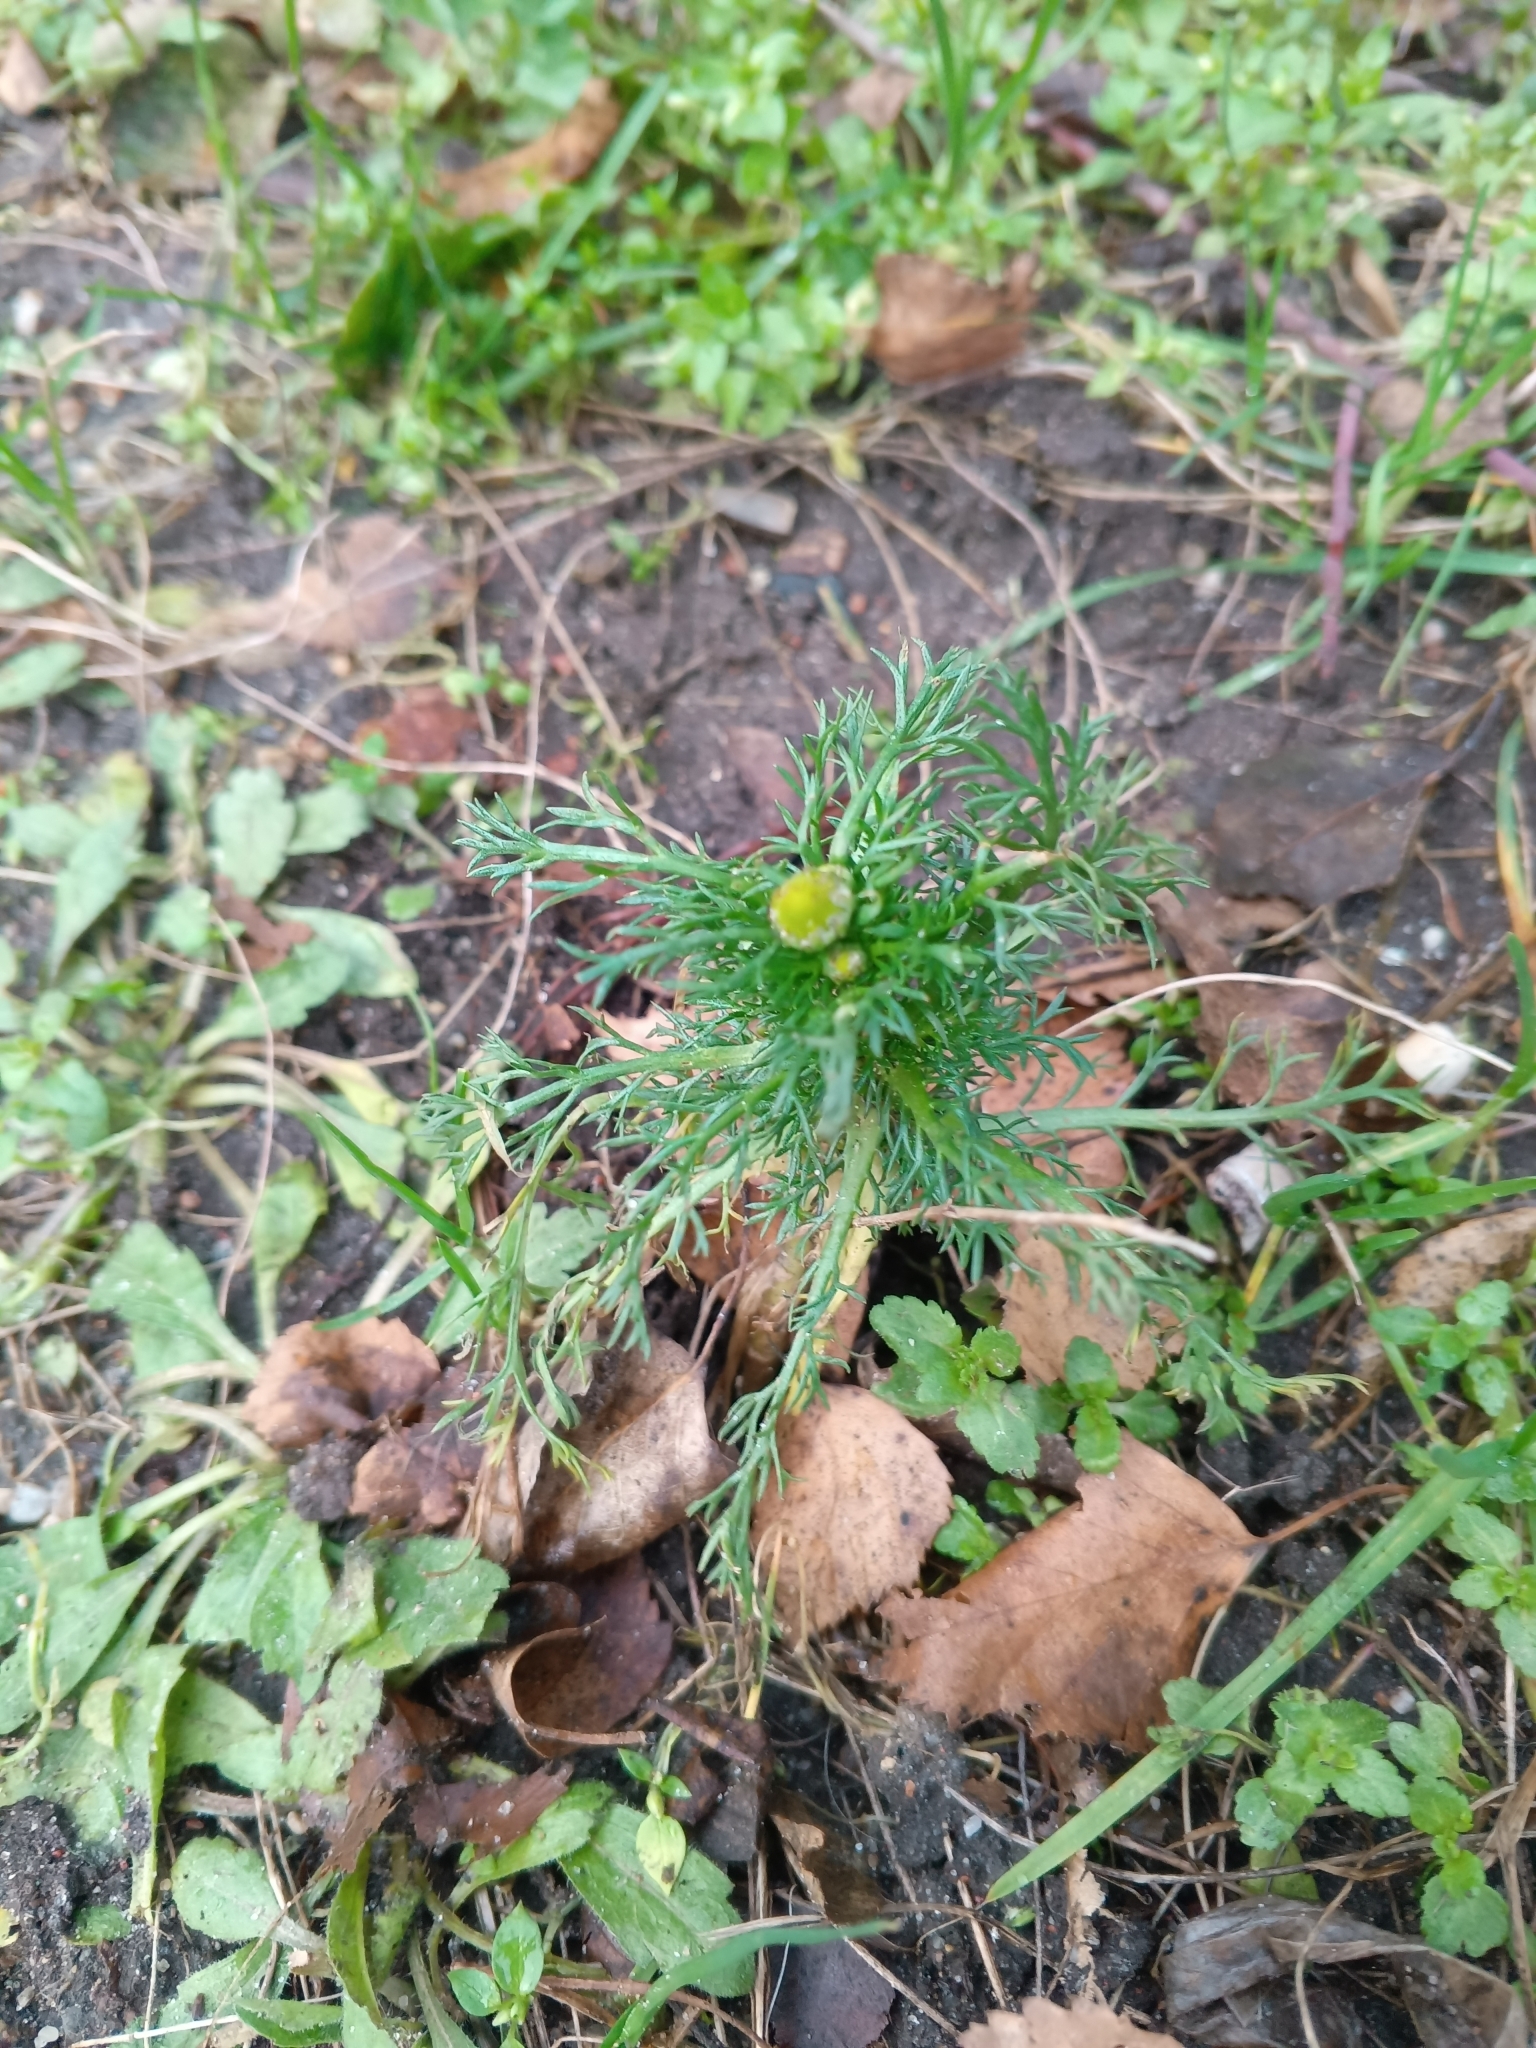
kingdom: Plantae
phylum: Tracheophyta
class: Magnoliopsida
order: Asterales
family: Asteraceae
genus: Matricaria
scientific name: Matricaria discoidea
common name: Disc mayweed
